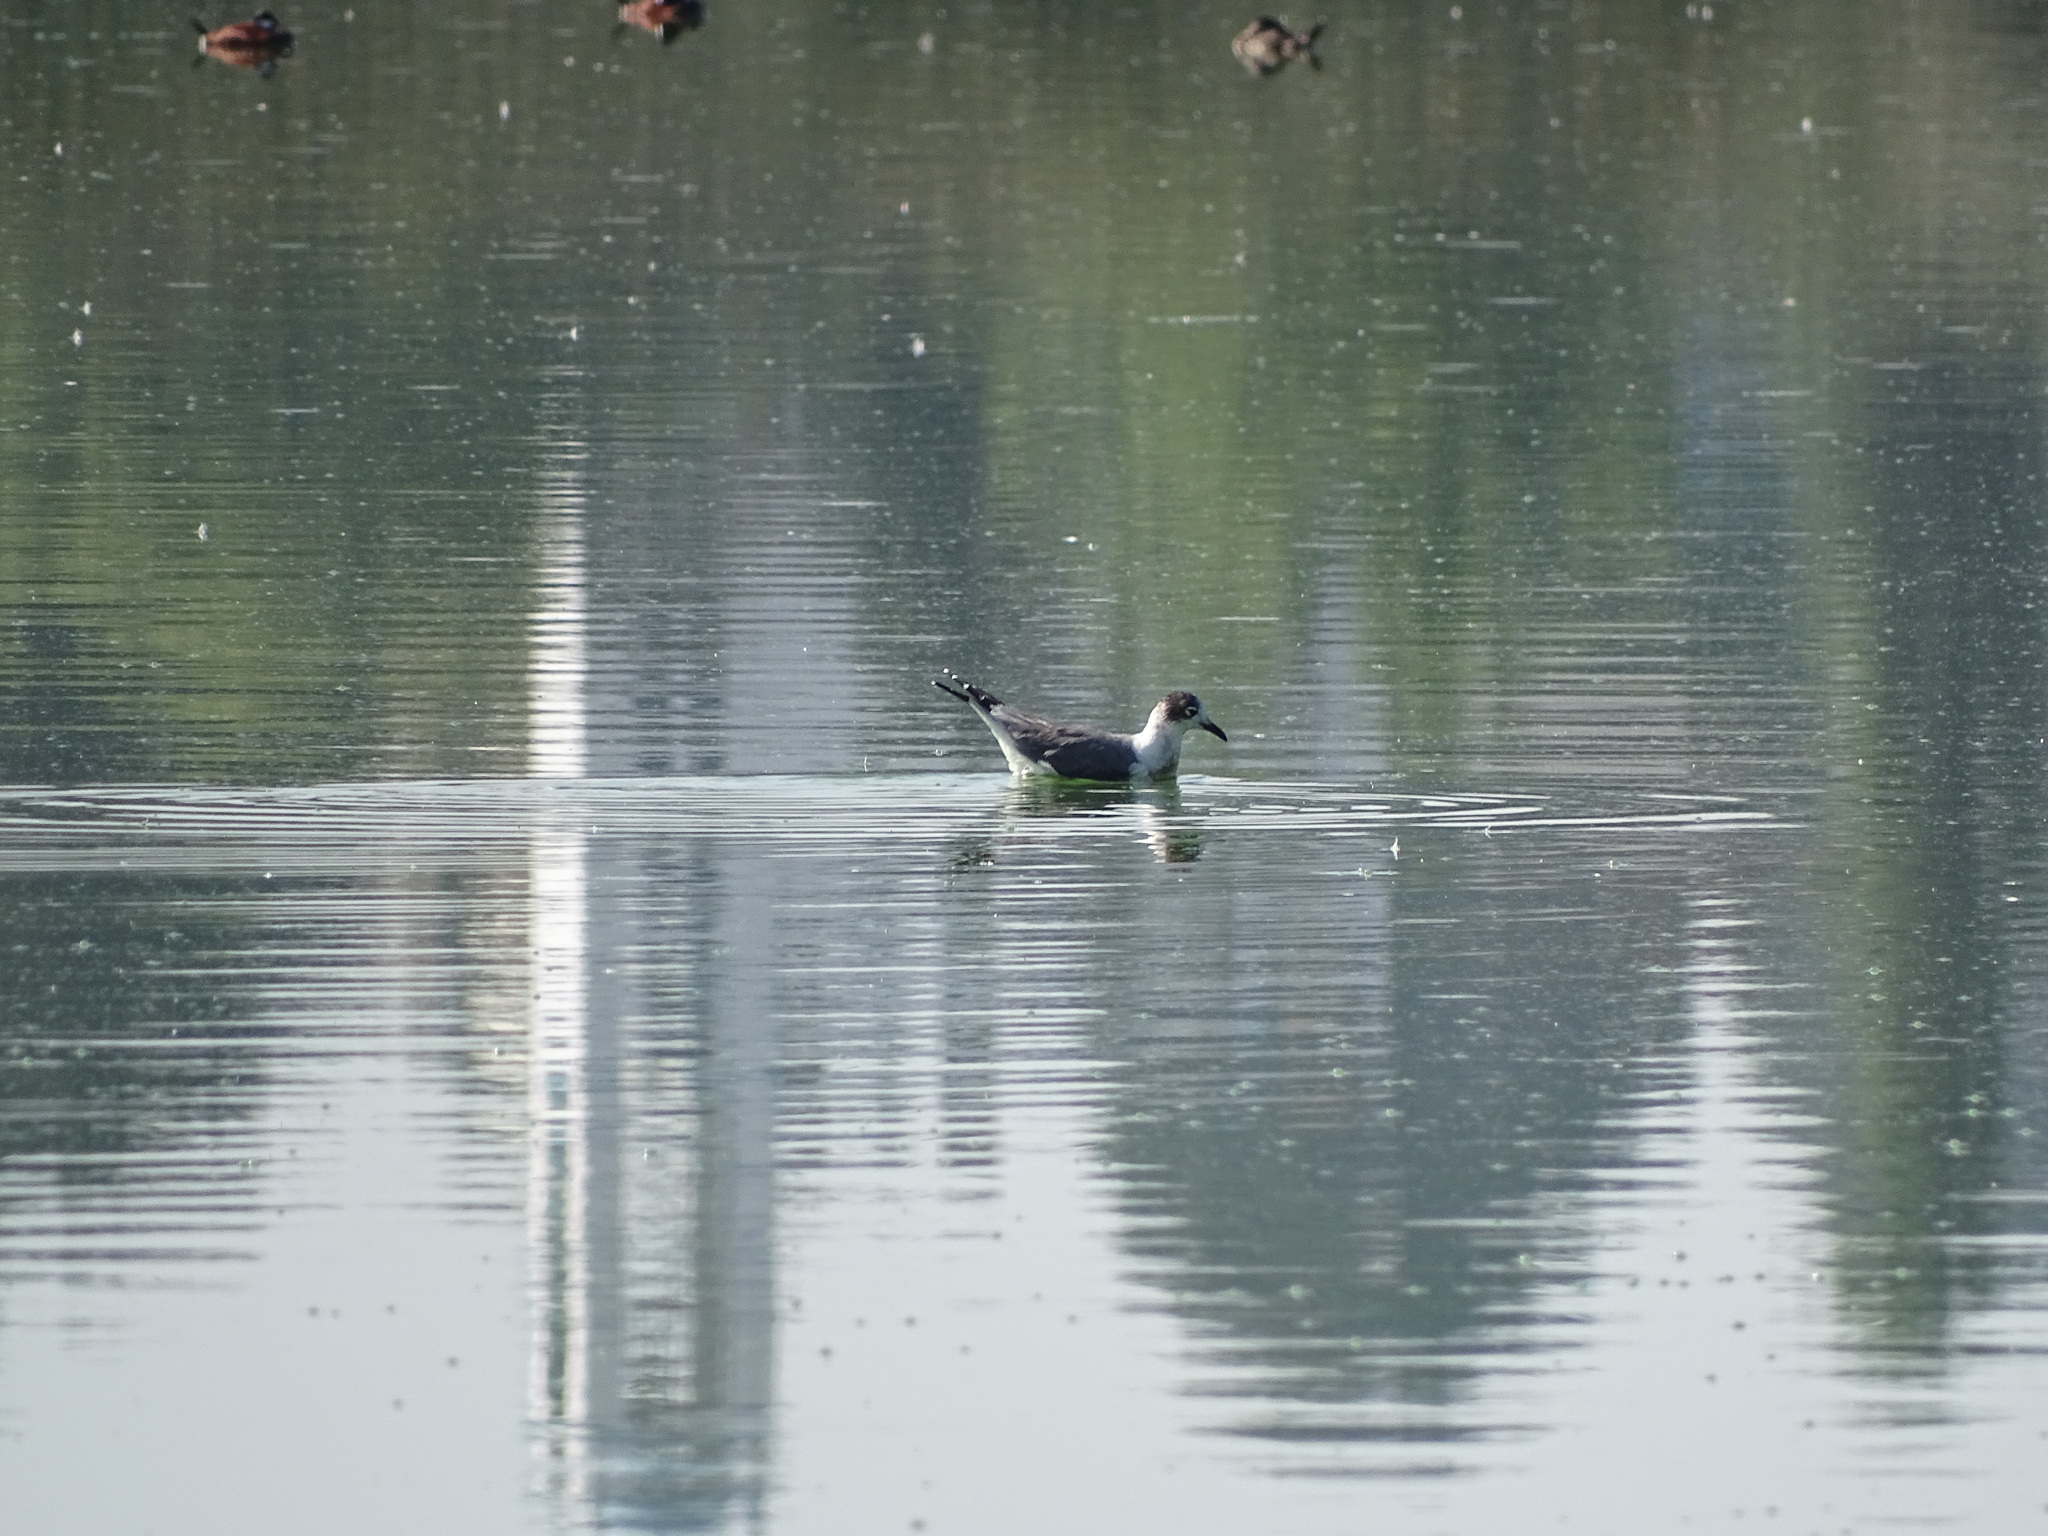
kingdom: Animalia
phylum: Chordata
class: Aves
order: Charadriiformes
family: Laridae
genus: Leucophaeus
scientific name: Leucophaeus pipixcan
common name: Franklin's gull
